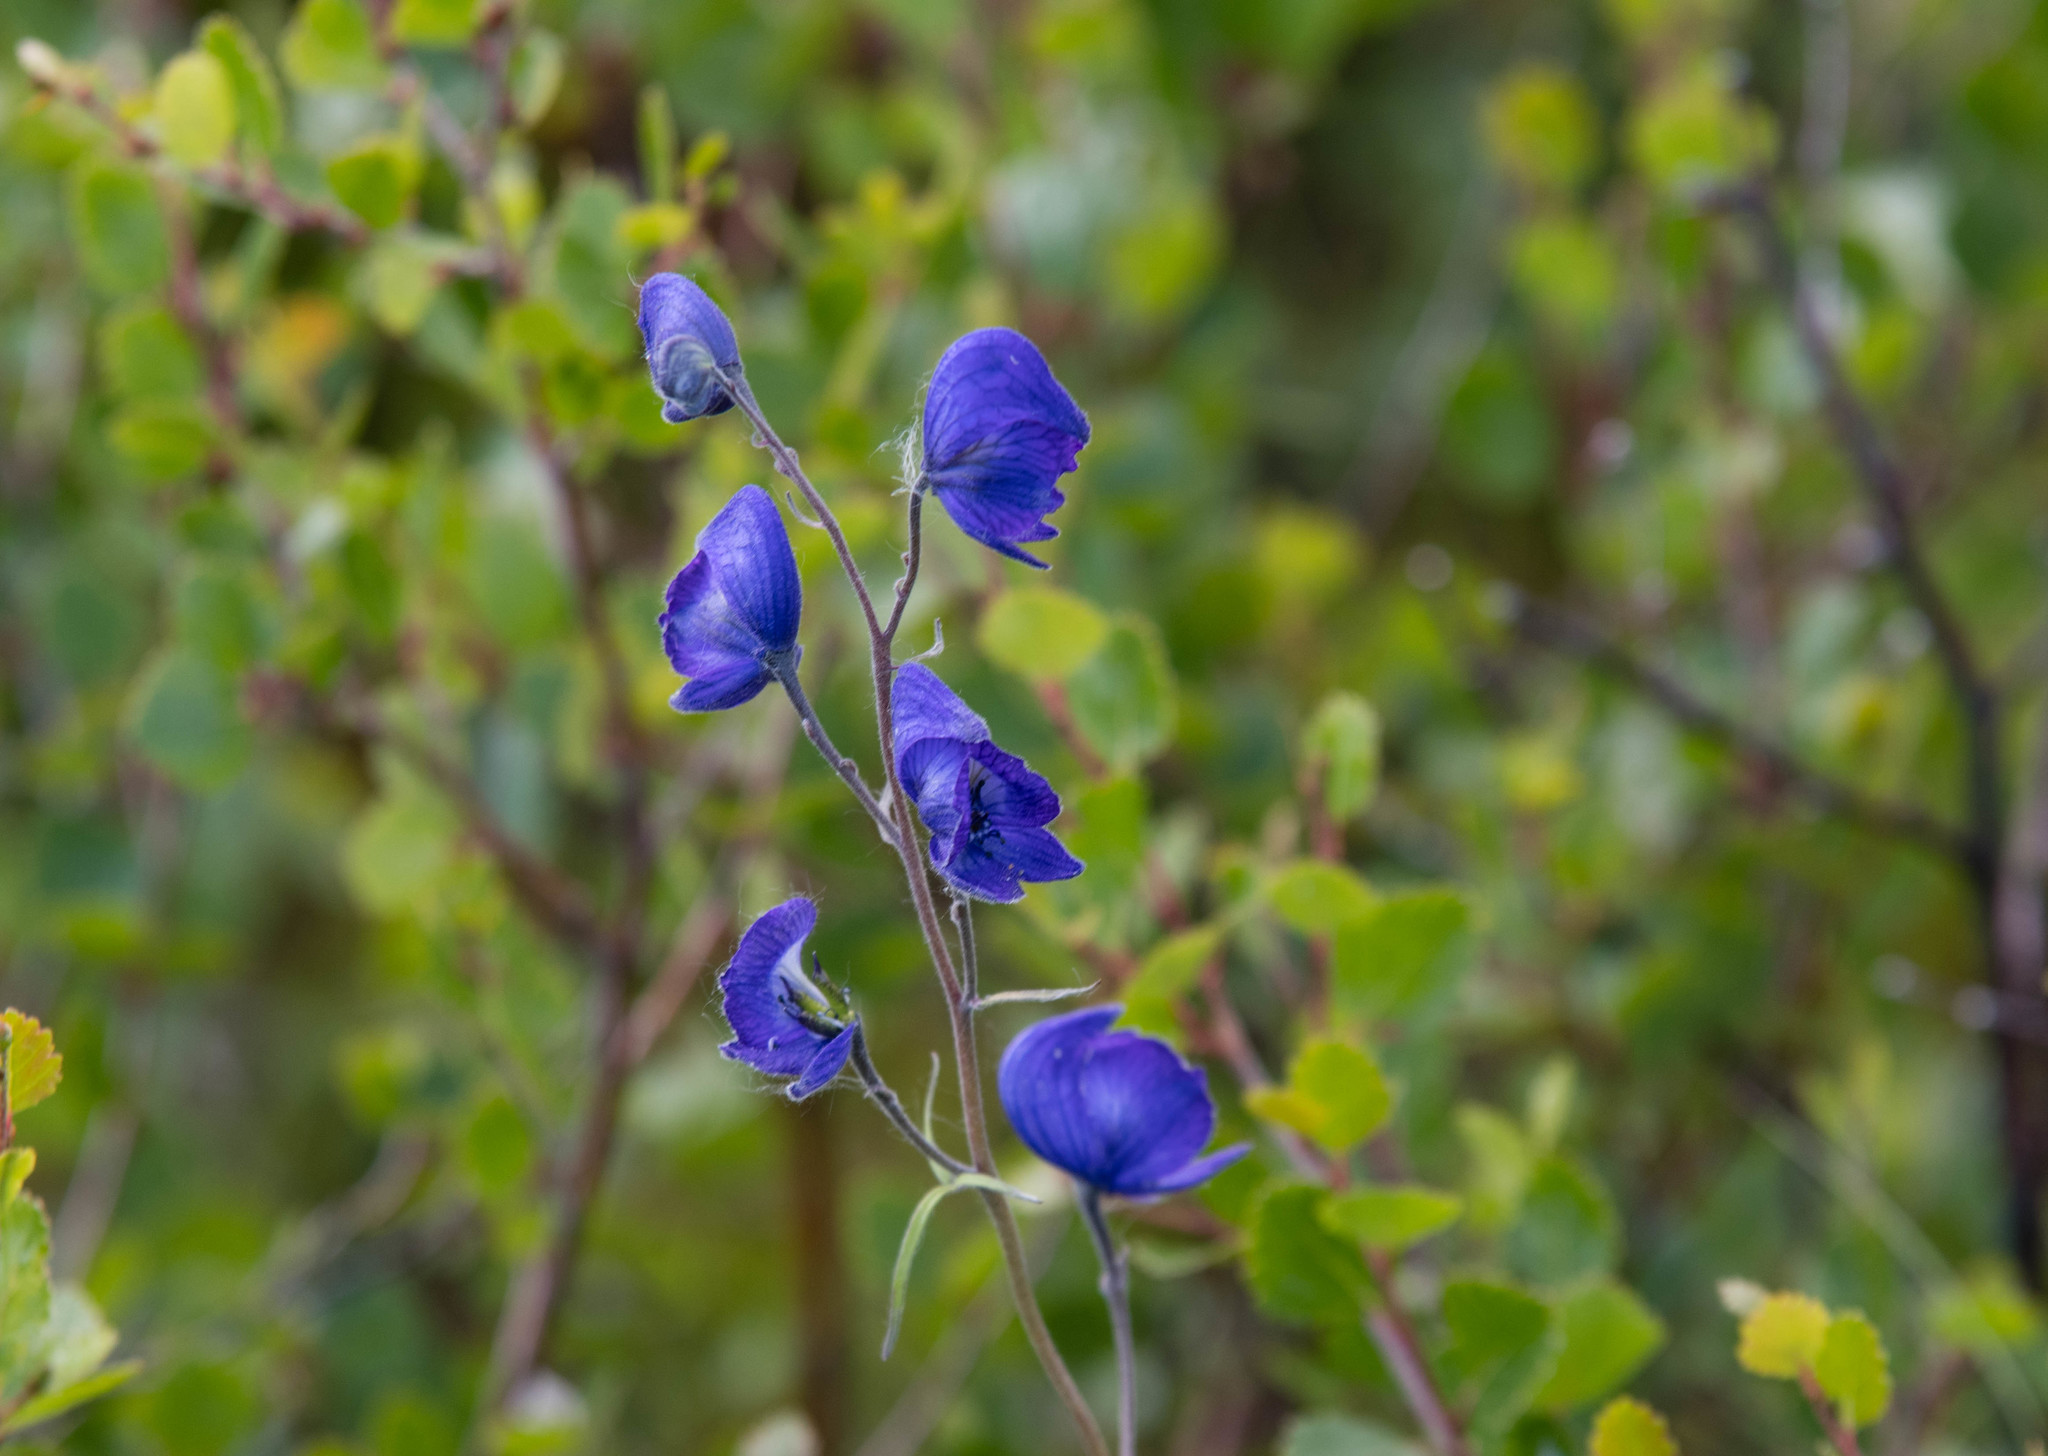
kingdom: Plantae
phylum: Tracheophyta
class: Magnoliopsida
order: Ranunculales
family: Ranunculaceae
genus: Aconitum
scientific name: Aconitum delphiniifolium
